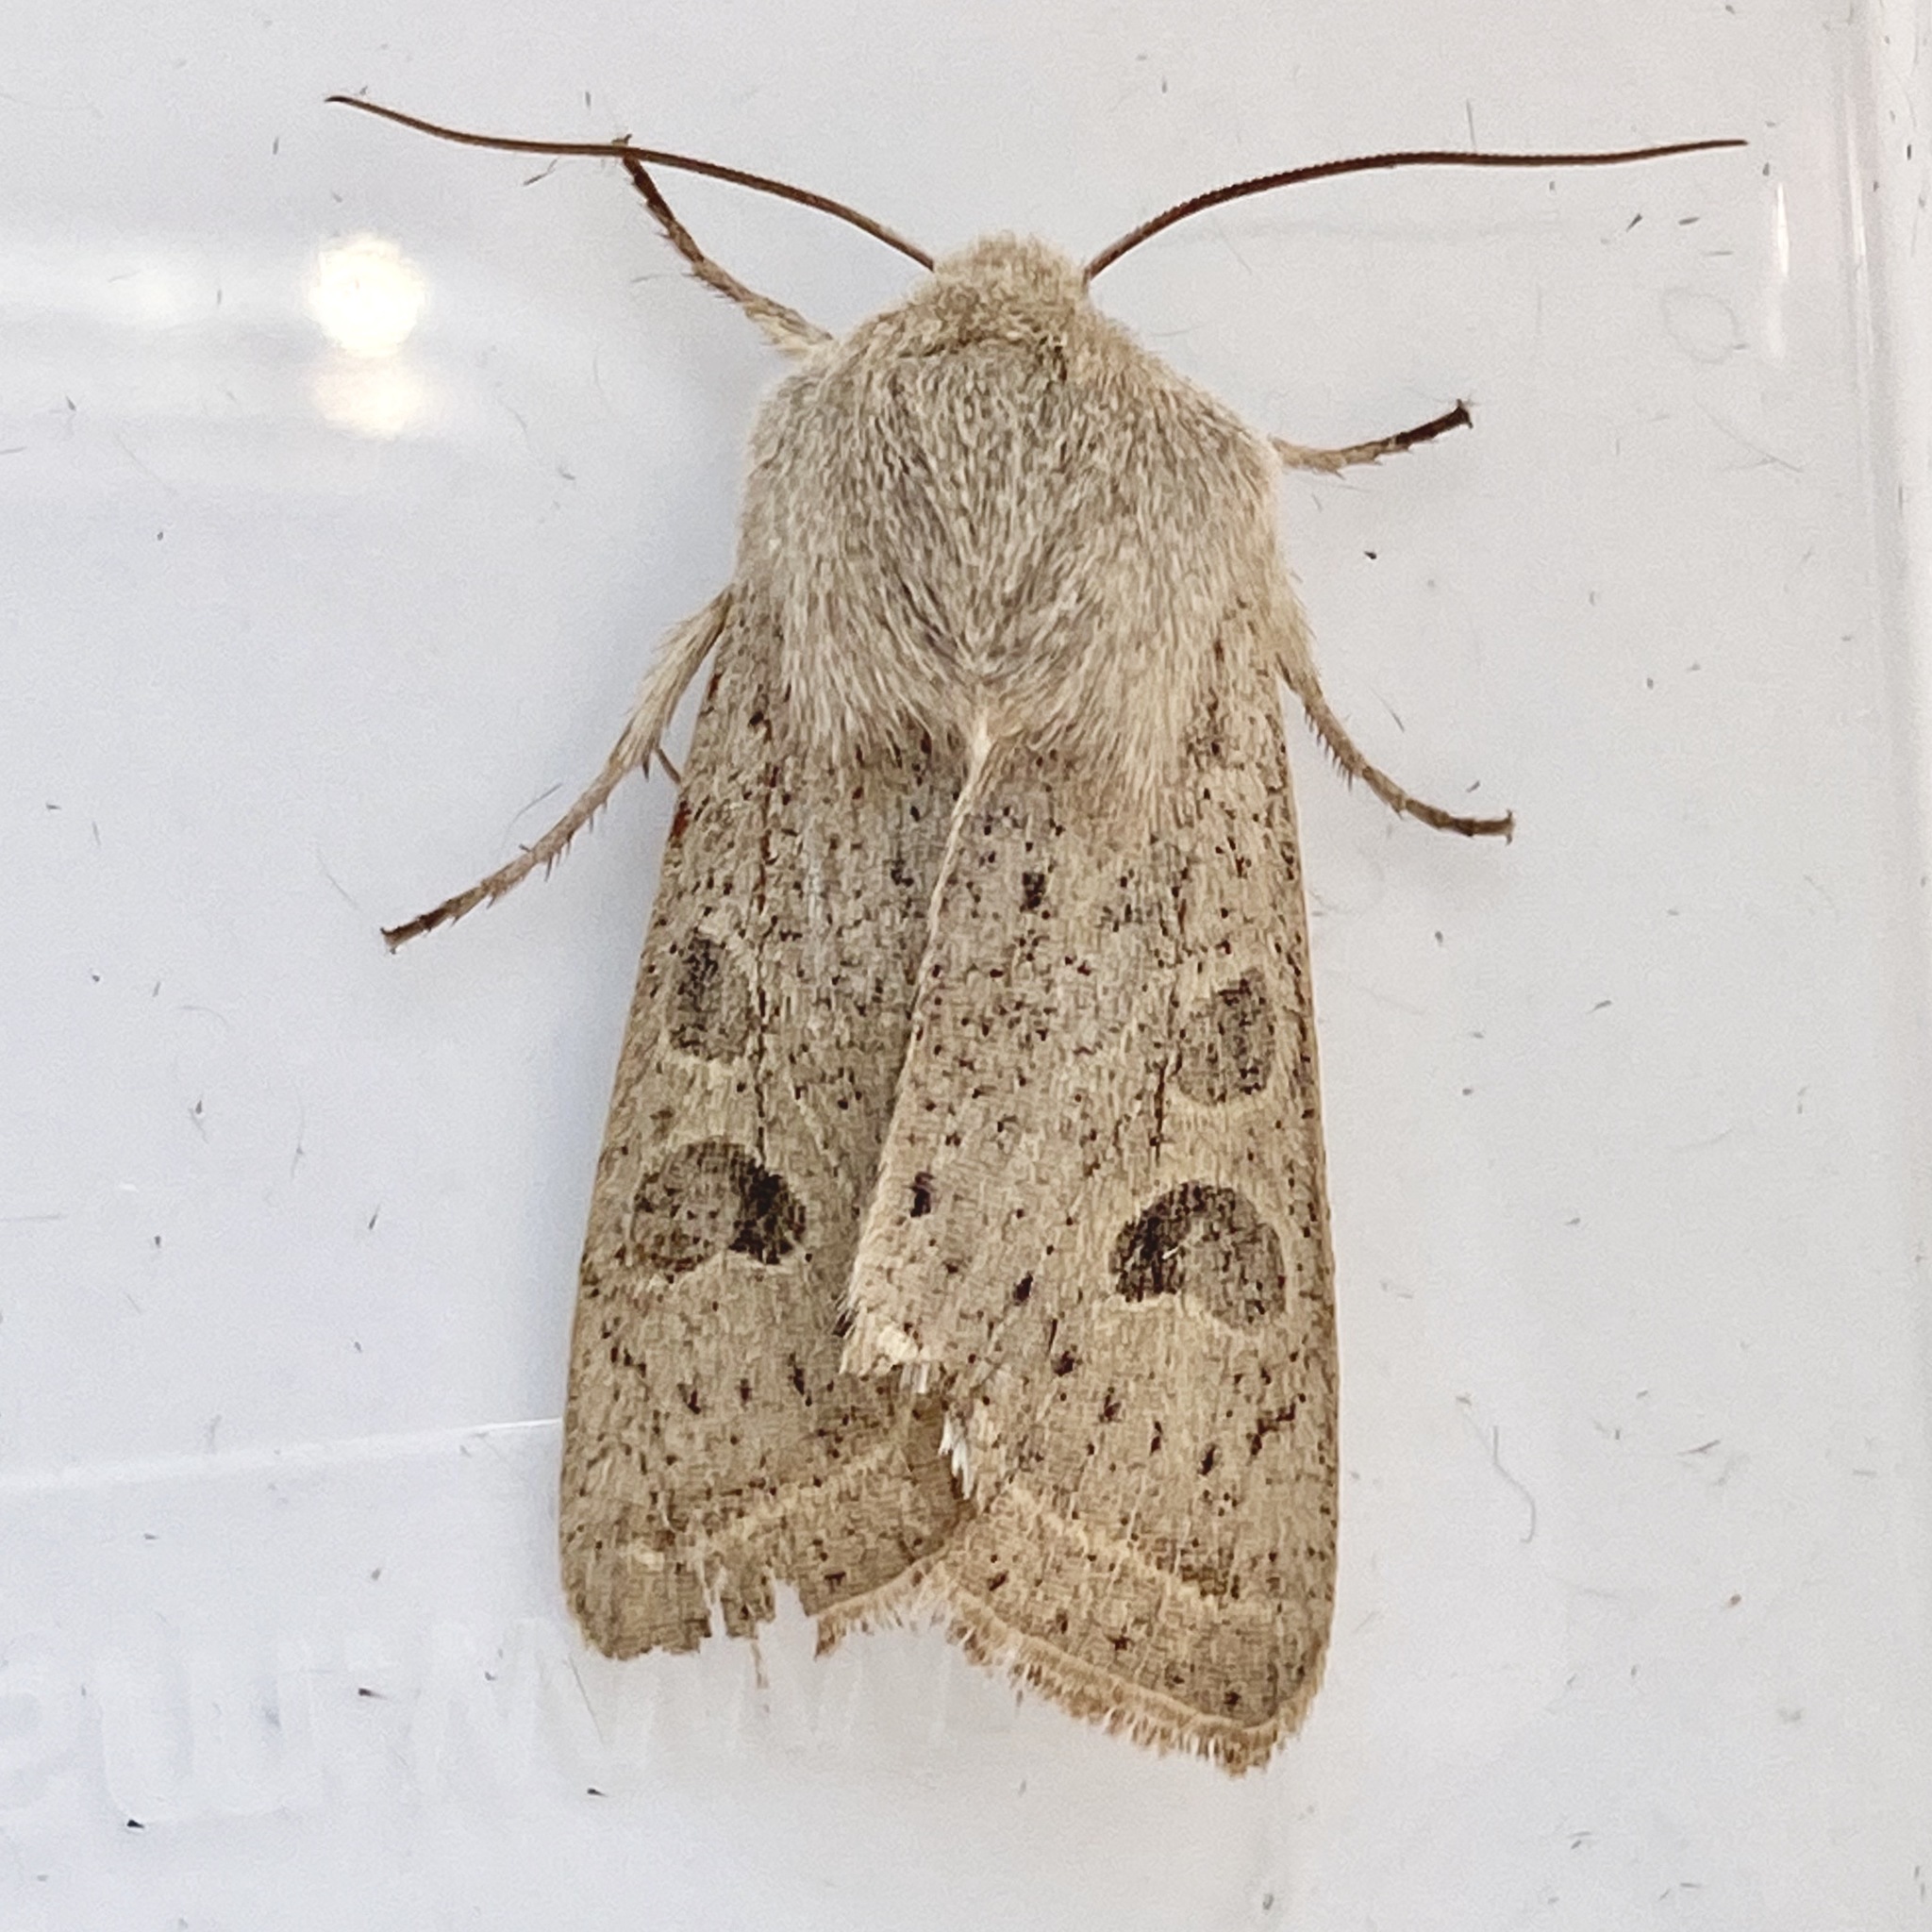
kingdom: Animalia
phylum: Arthropoda
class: Insecta
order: Lepidoptera
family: Noctuidae
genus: Orthosia
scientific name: Orthosia gracilis
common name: Powdered quaker
